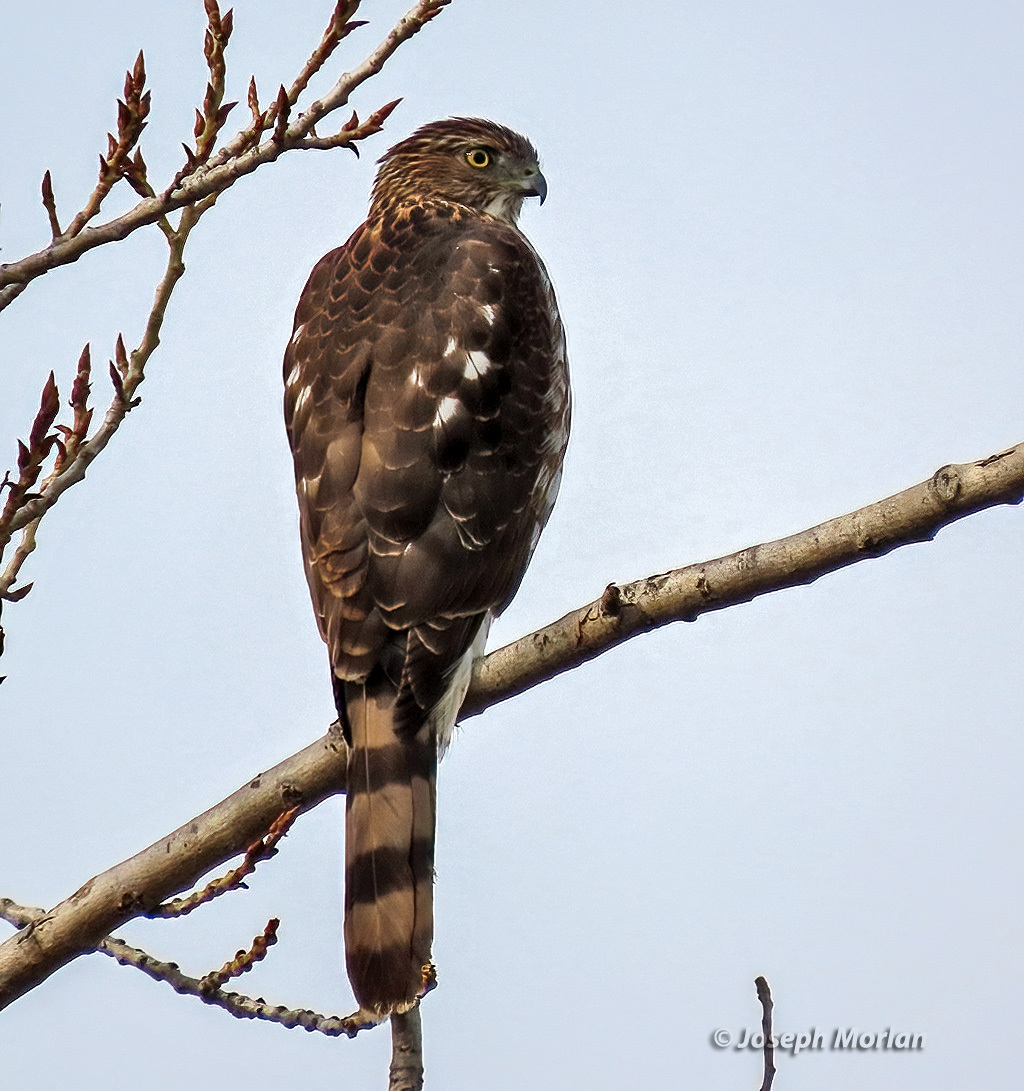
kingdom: Animalia
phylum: Chordata
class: Aves
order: Accipitriformes
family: Accipitridae
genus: Accipiter
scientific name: Accipiter cooperii
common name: Cooper's hawk
